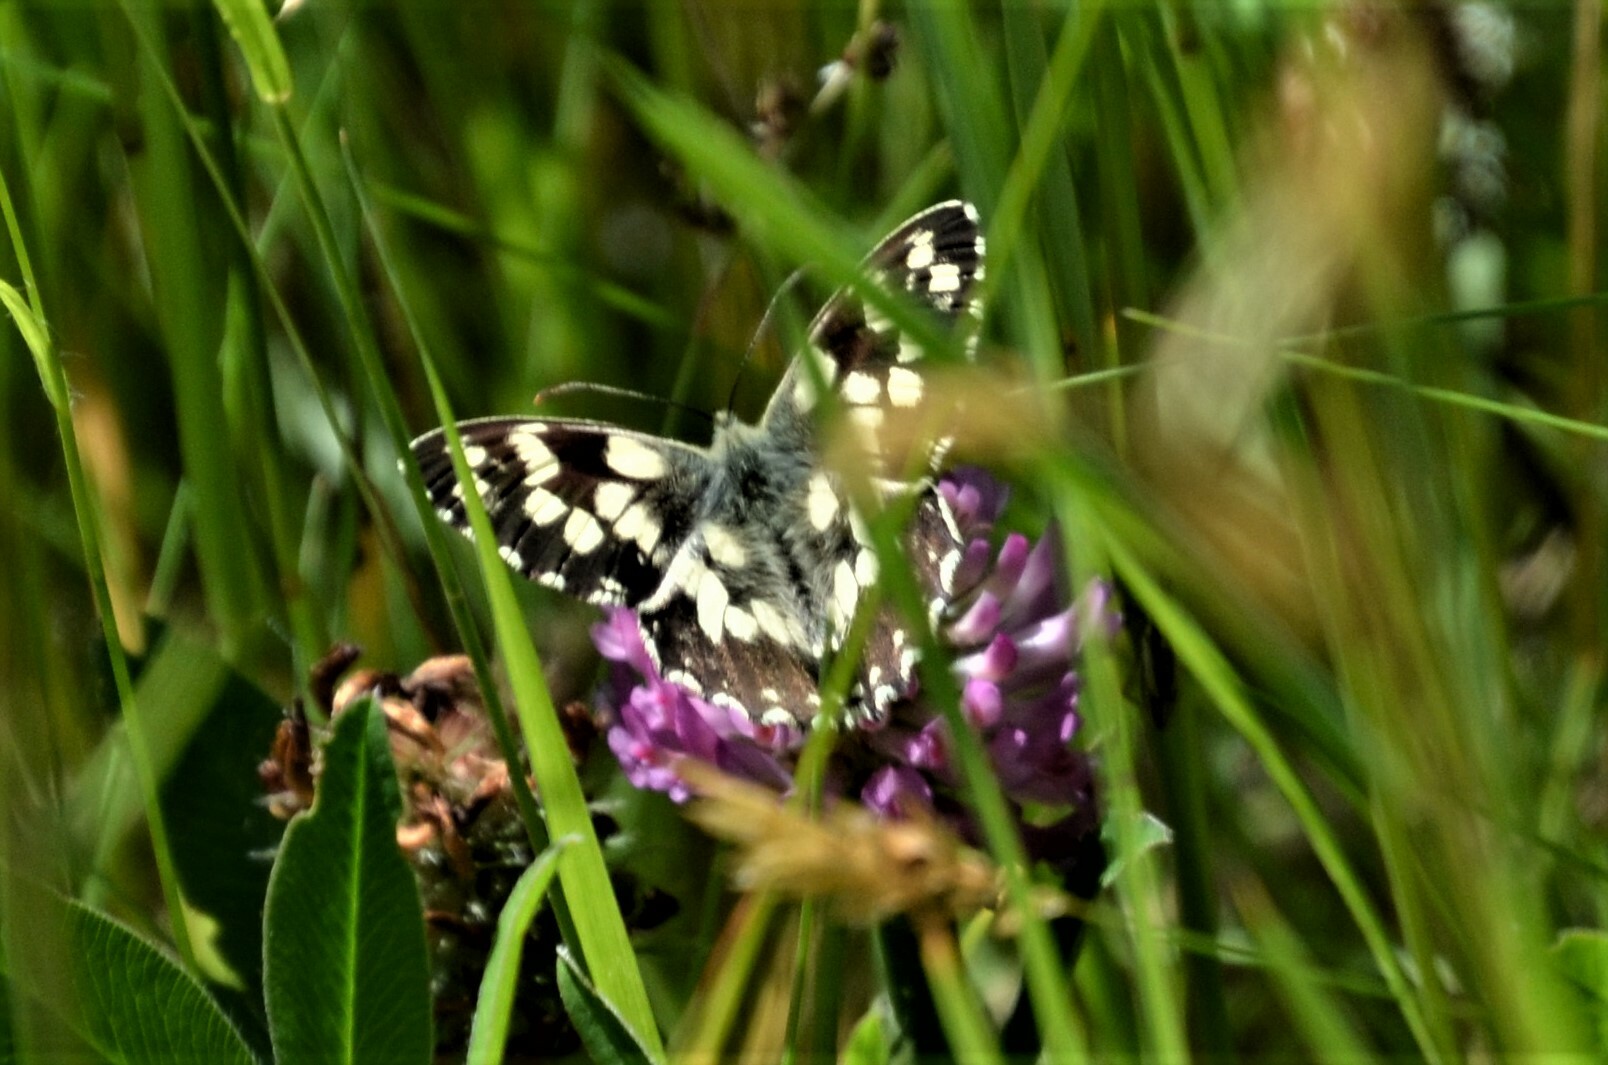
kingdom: Animalia
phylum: Arthropoda
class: Insecta
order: Lepidoptera
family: Nymphalidae
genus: Melanargia
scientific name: Melanargia galathea
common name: Marbled white
